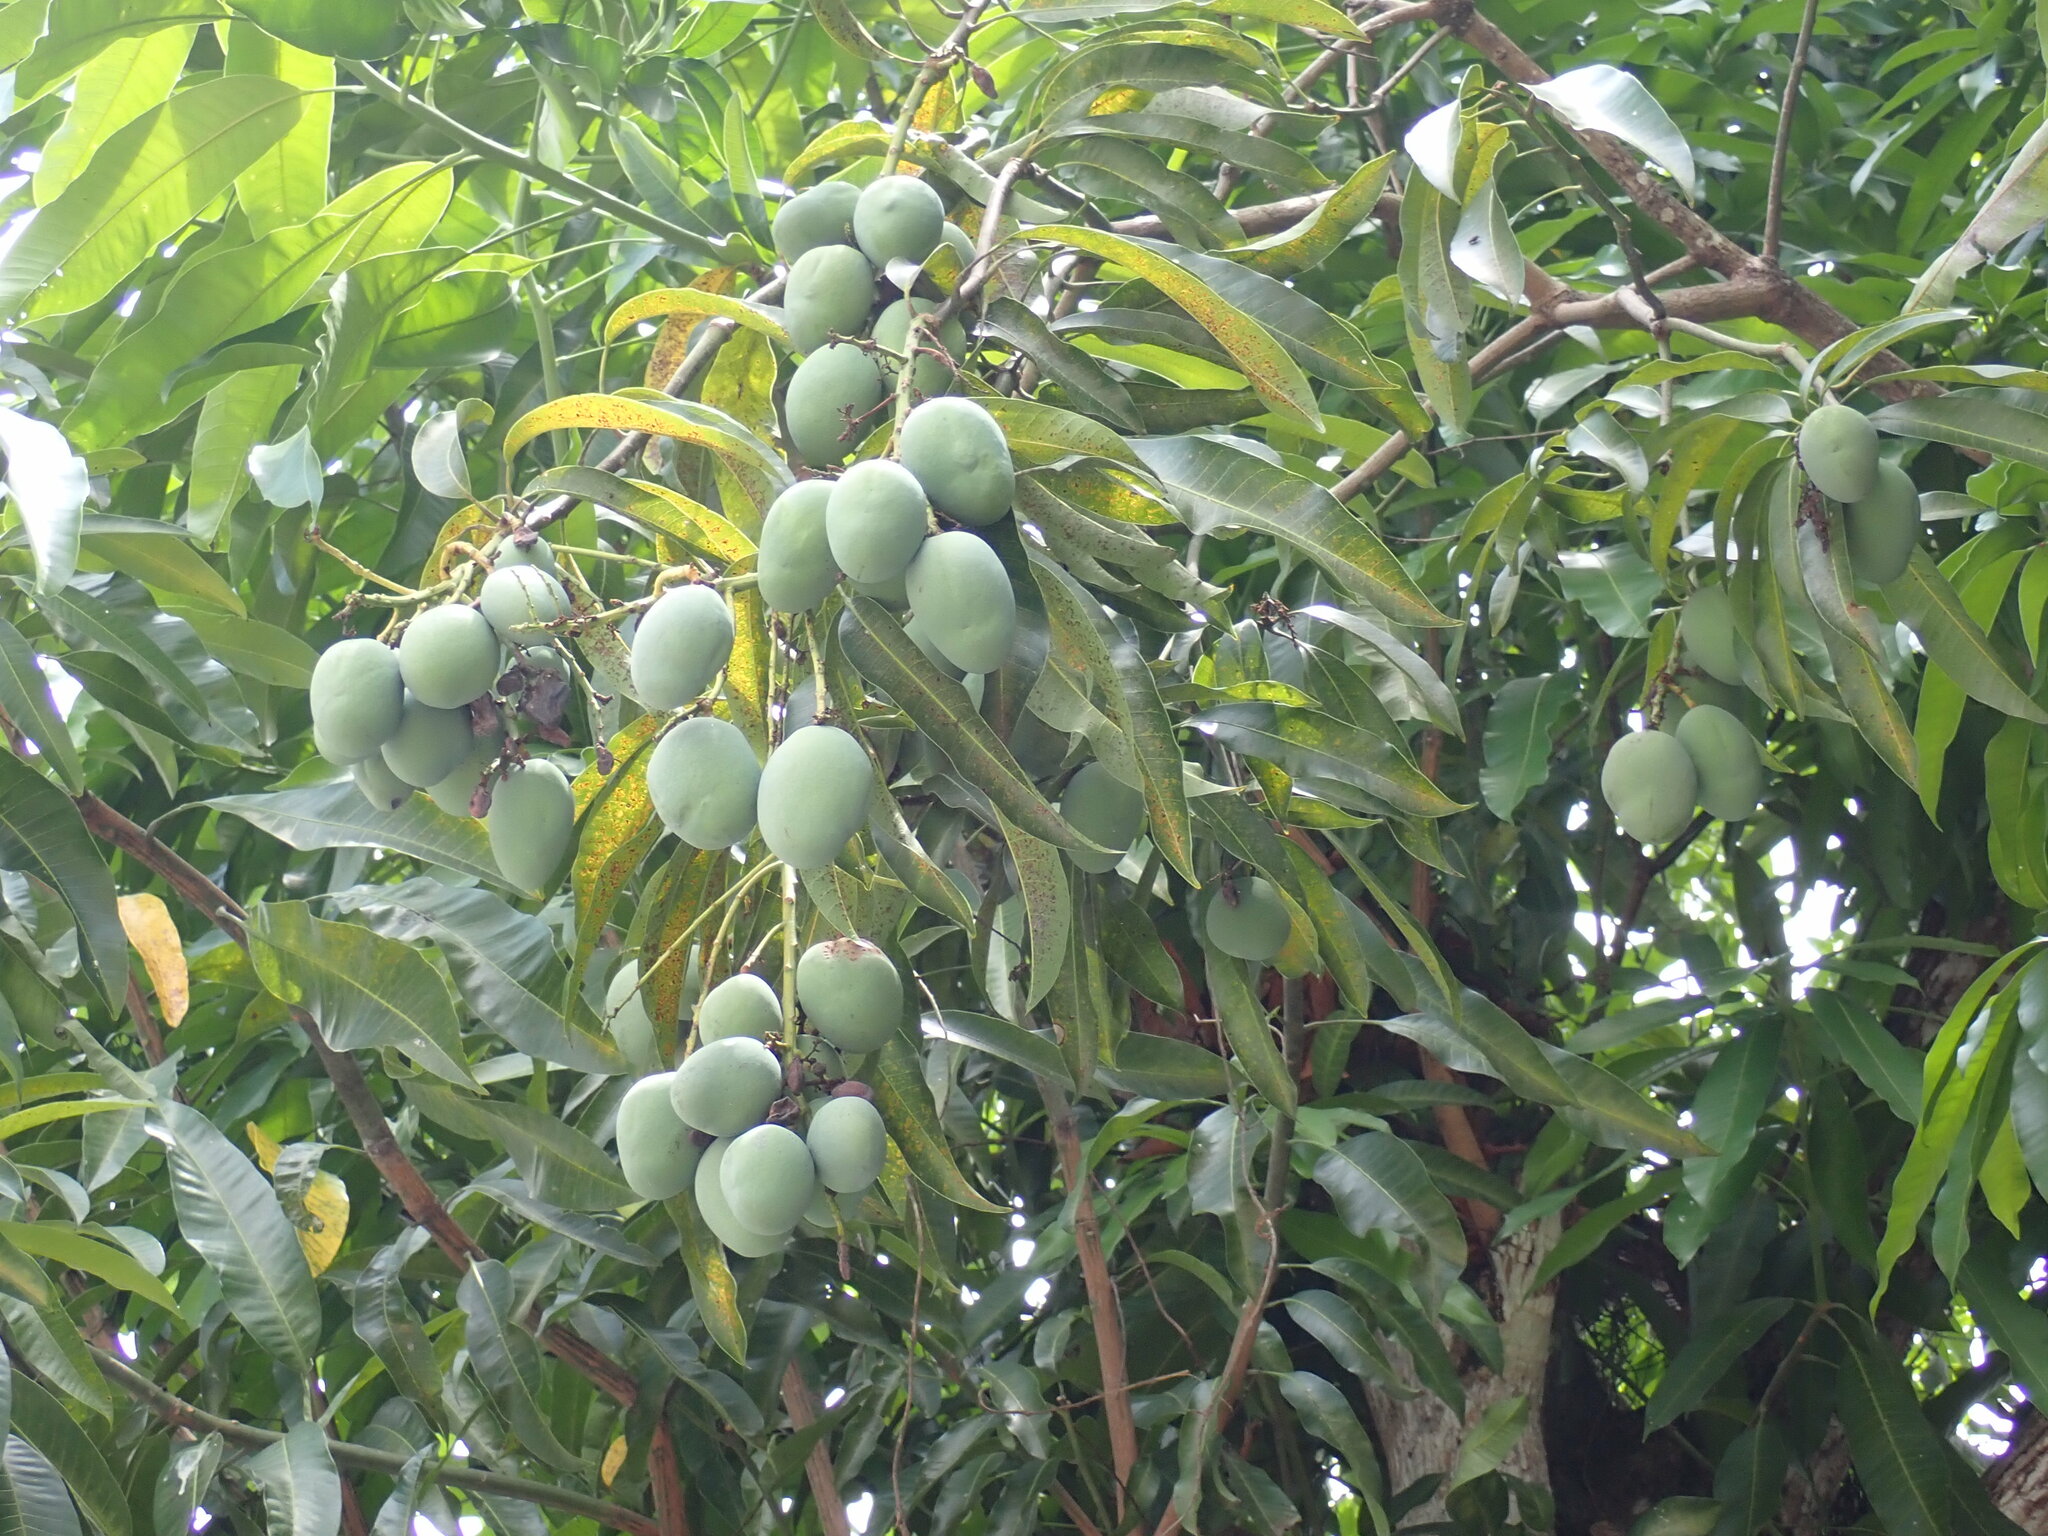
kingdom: Plantae
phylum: Tracheophyta
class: Magnoliopsida
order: Sapindales
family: Anacardiaceae
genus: Mangifera
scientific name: Mangifera indica
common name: Mango
